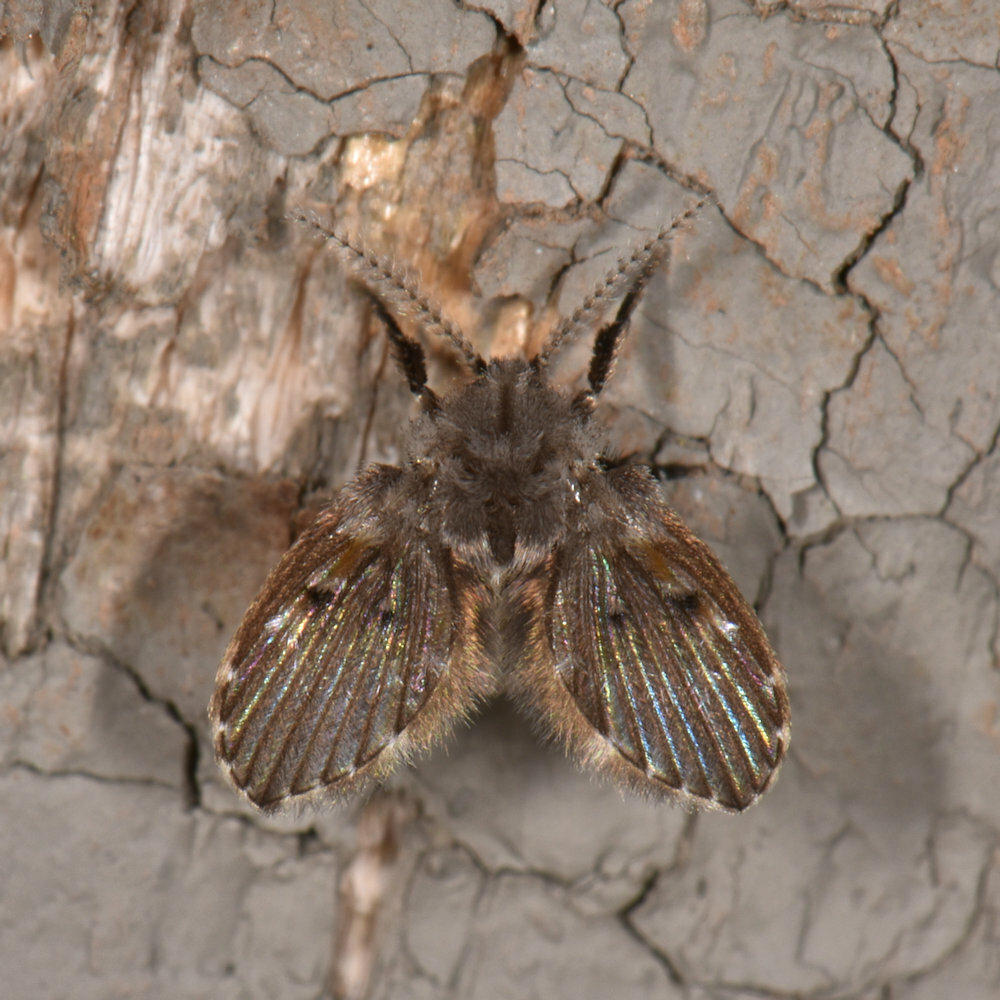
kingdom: Animalia
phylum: Arthropoda
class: Insecta
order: Diptera
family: Psychodidae
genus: Clogmia
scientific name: Clogmia albipunctatus
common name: White-spotted moth fly
